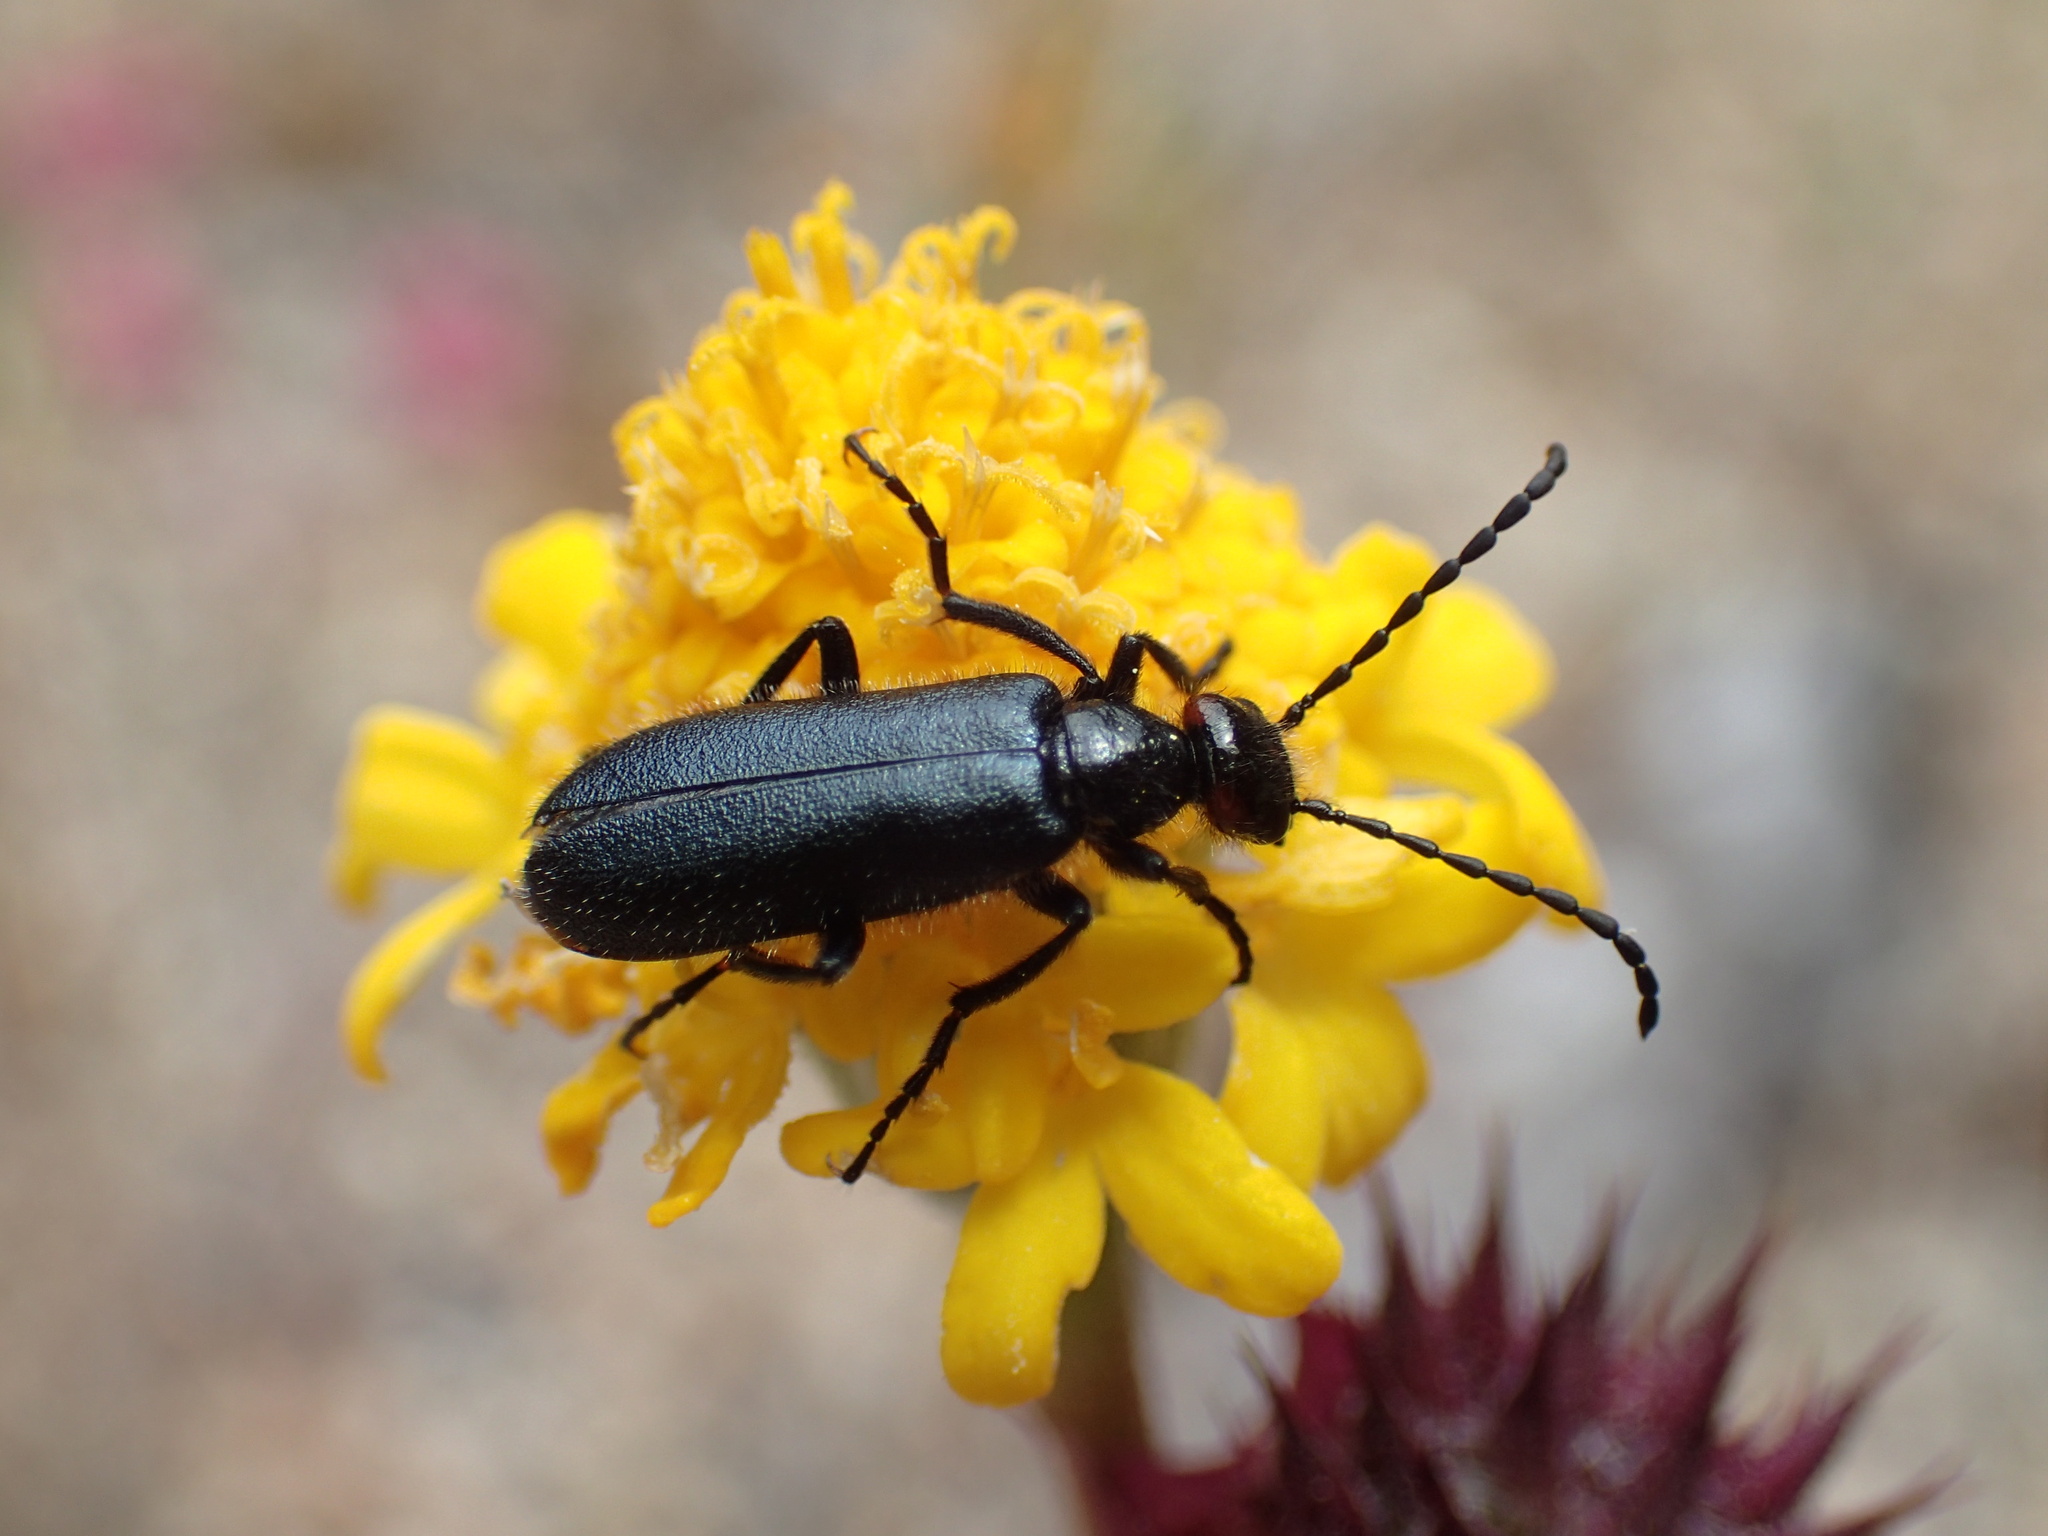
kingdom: Animalia
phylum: Arthropoda
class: Insecta
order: Coleoptera
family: Meloidae
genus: Lytta
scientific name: Lytta auriculata
